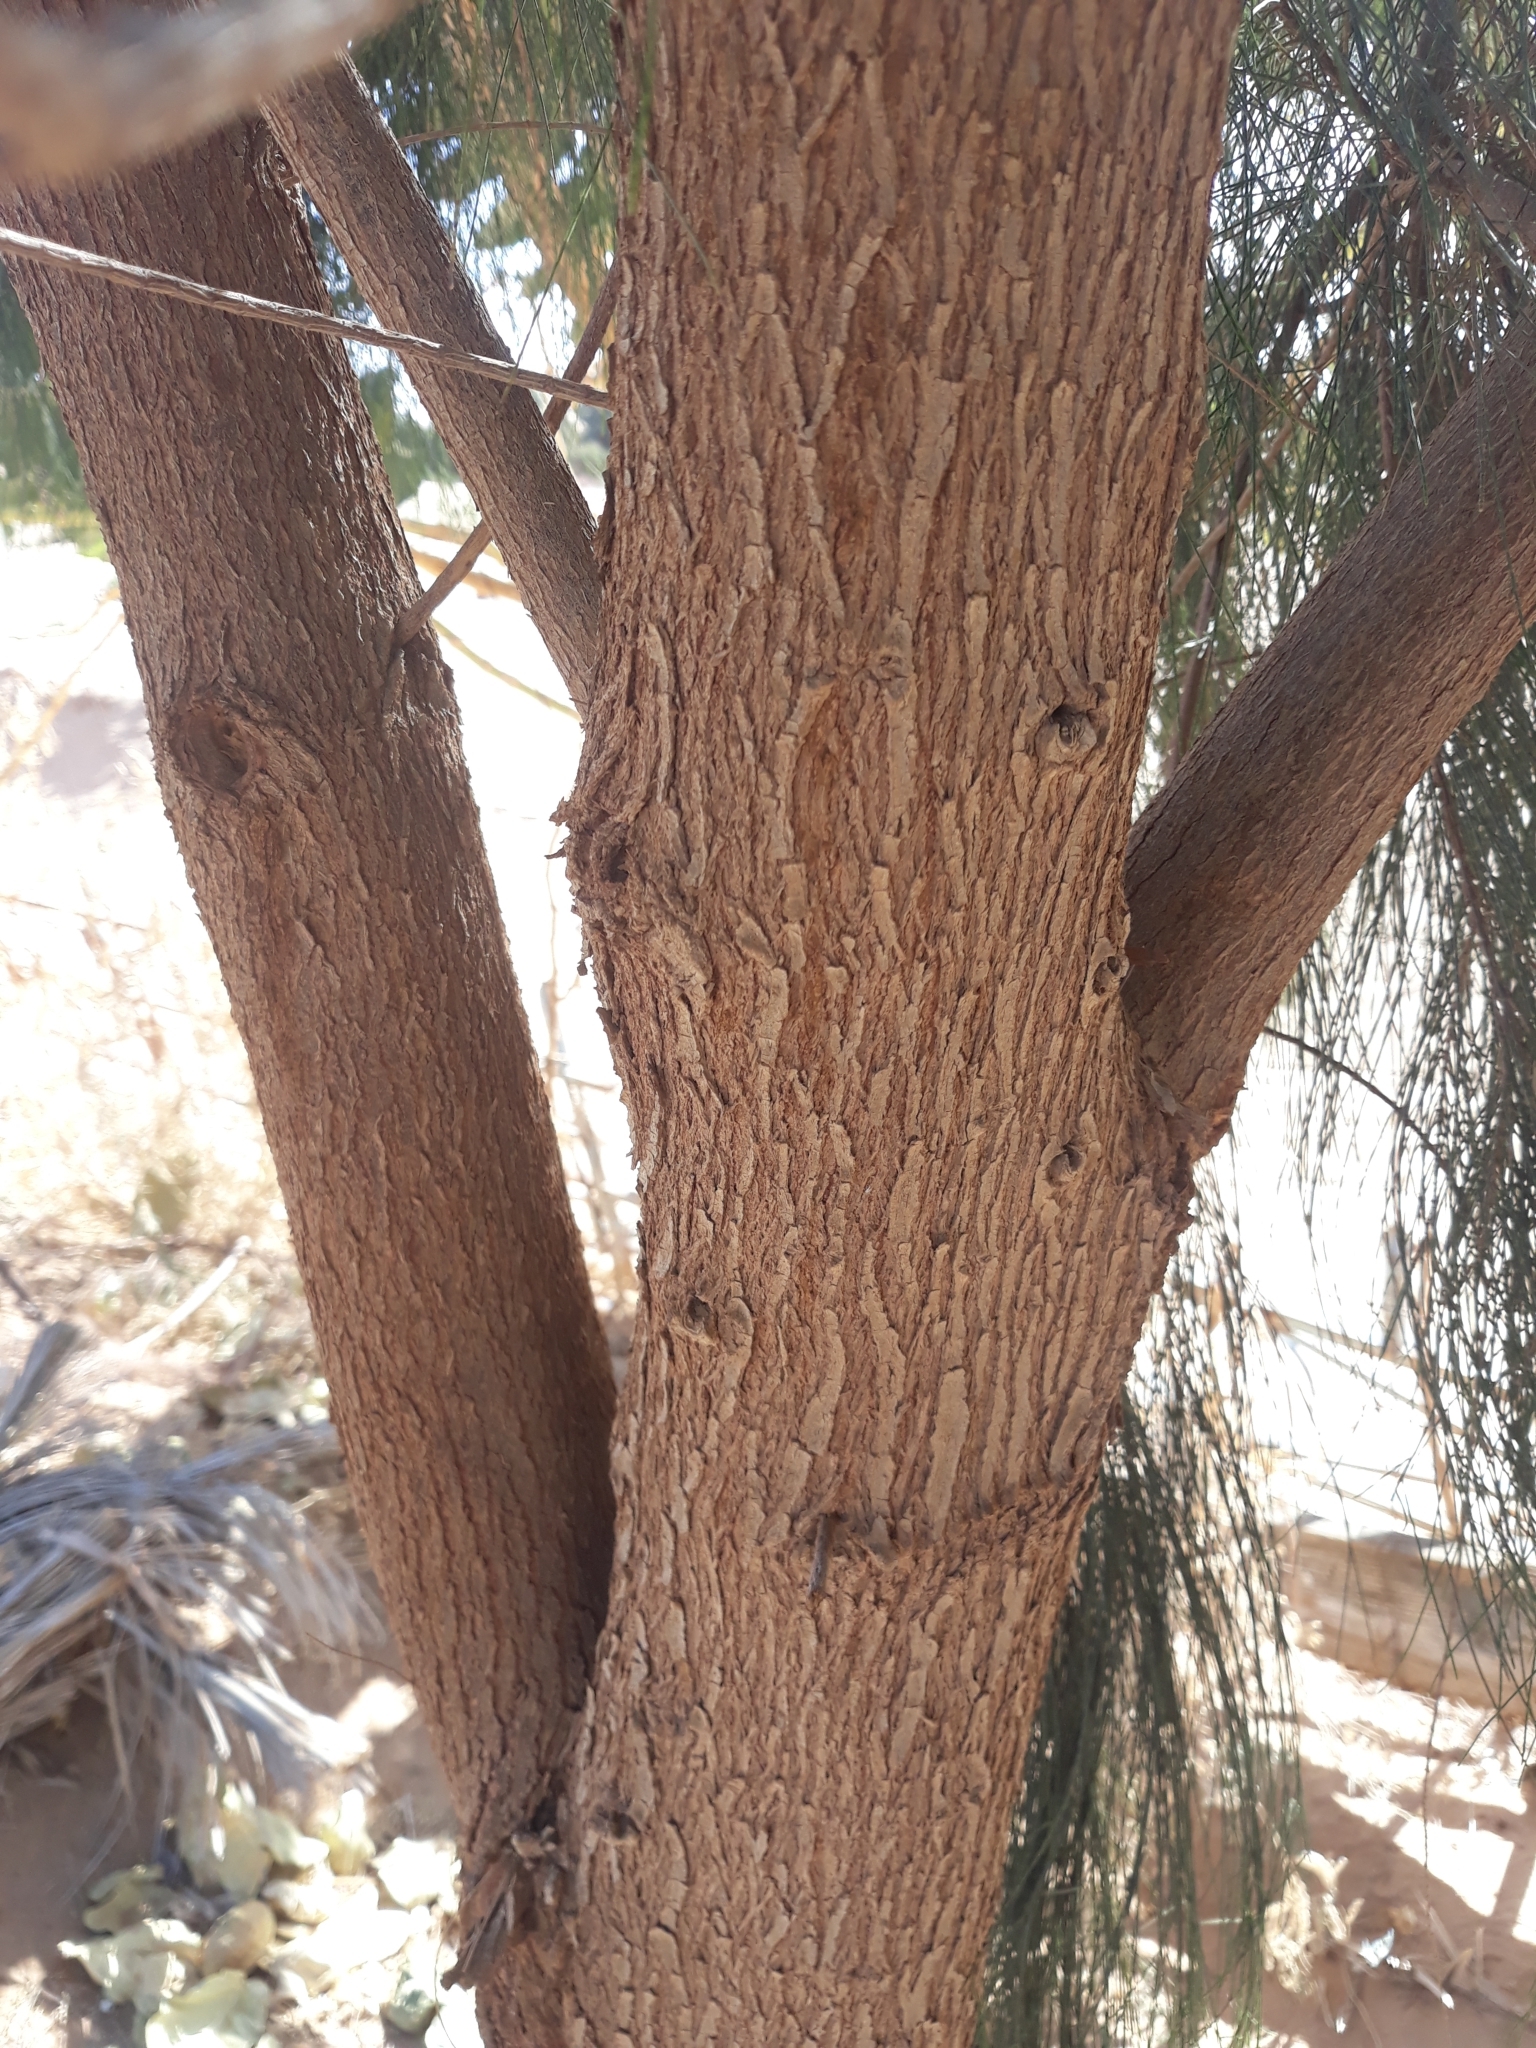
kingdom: Plantae
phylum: Tracheophyta
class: Magnoliopsida
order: Fagales
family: Casuarinaceae
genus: Casuarina
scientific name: Casuarina equisetifolia
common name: Beach sheoak
